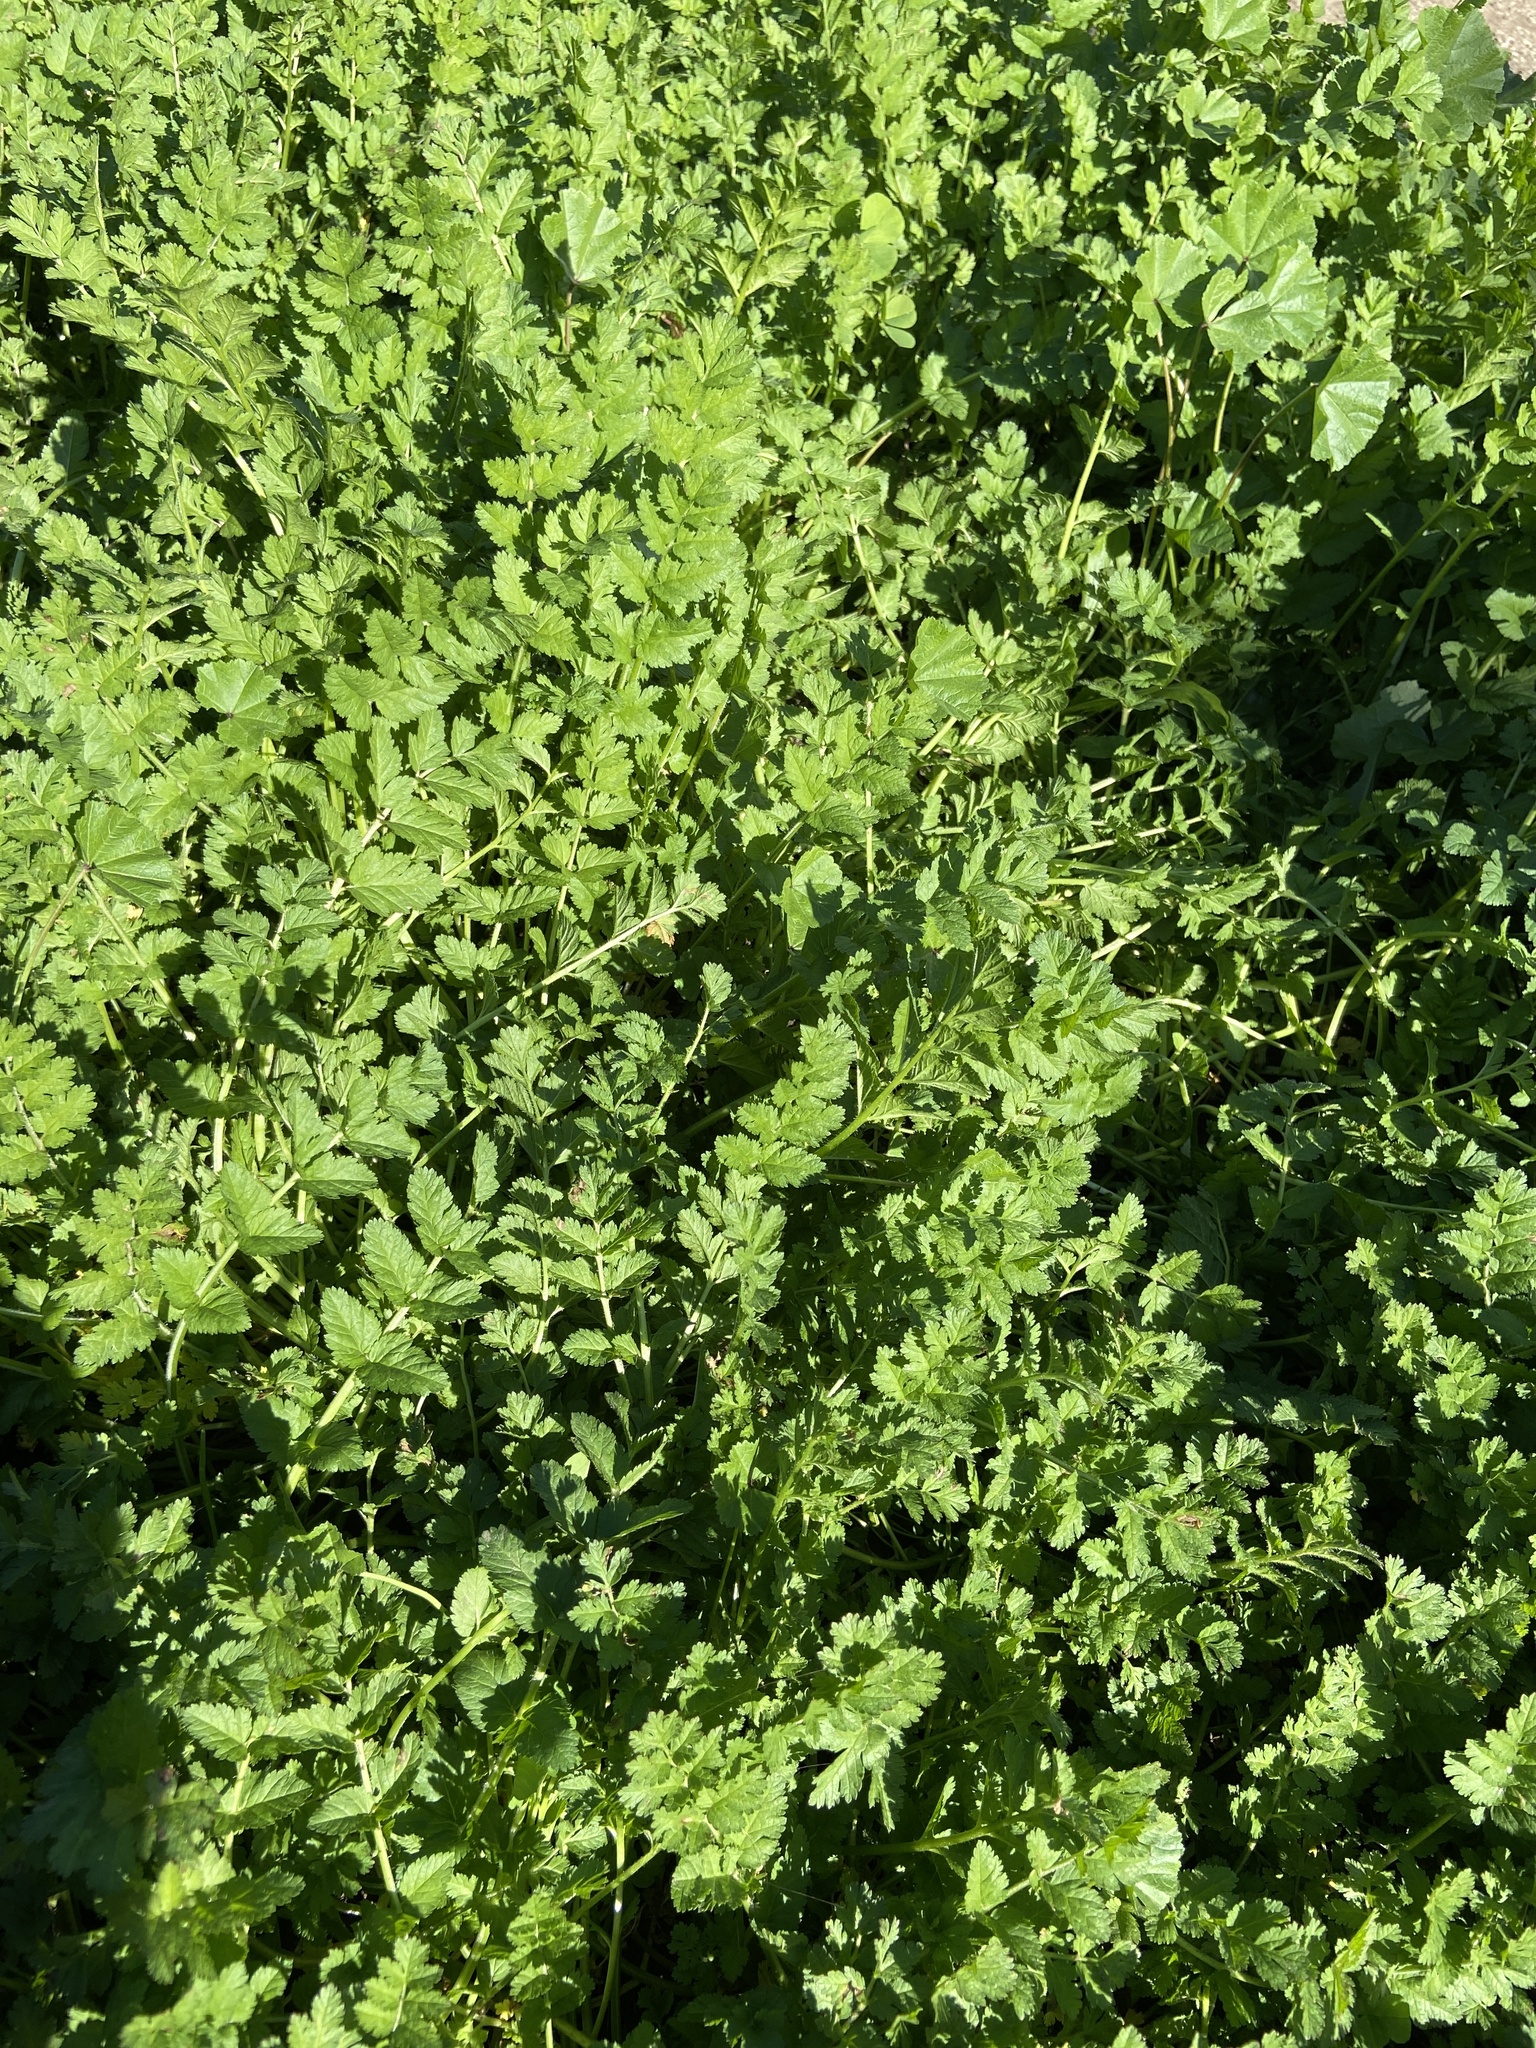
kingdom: Plantae
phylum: Tracheophyta
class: Magnoliopsida
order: Geraniales
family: Geraniaceae
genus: Erodium
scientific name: Erodium moschatum
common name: Musk stork's-bill
